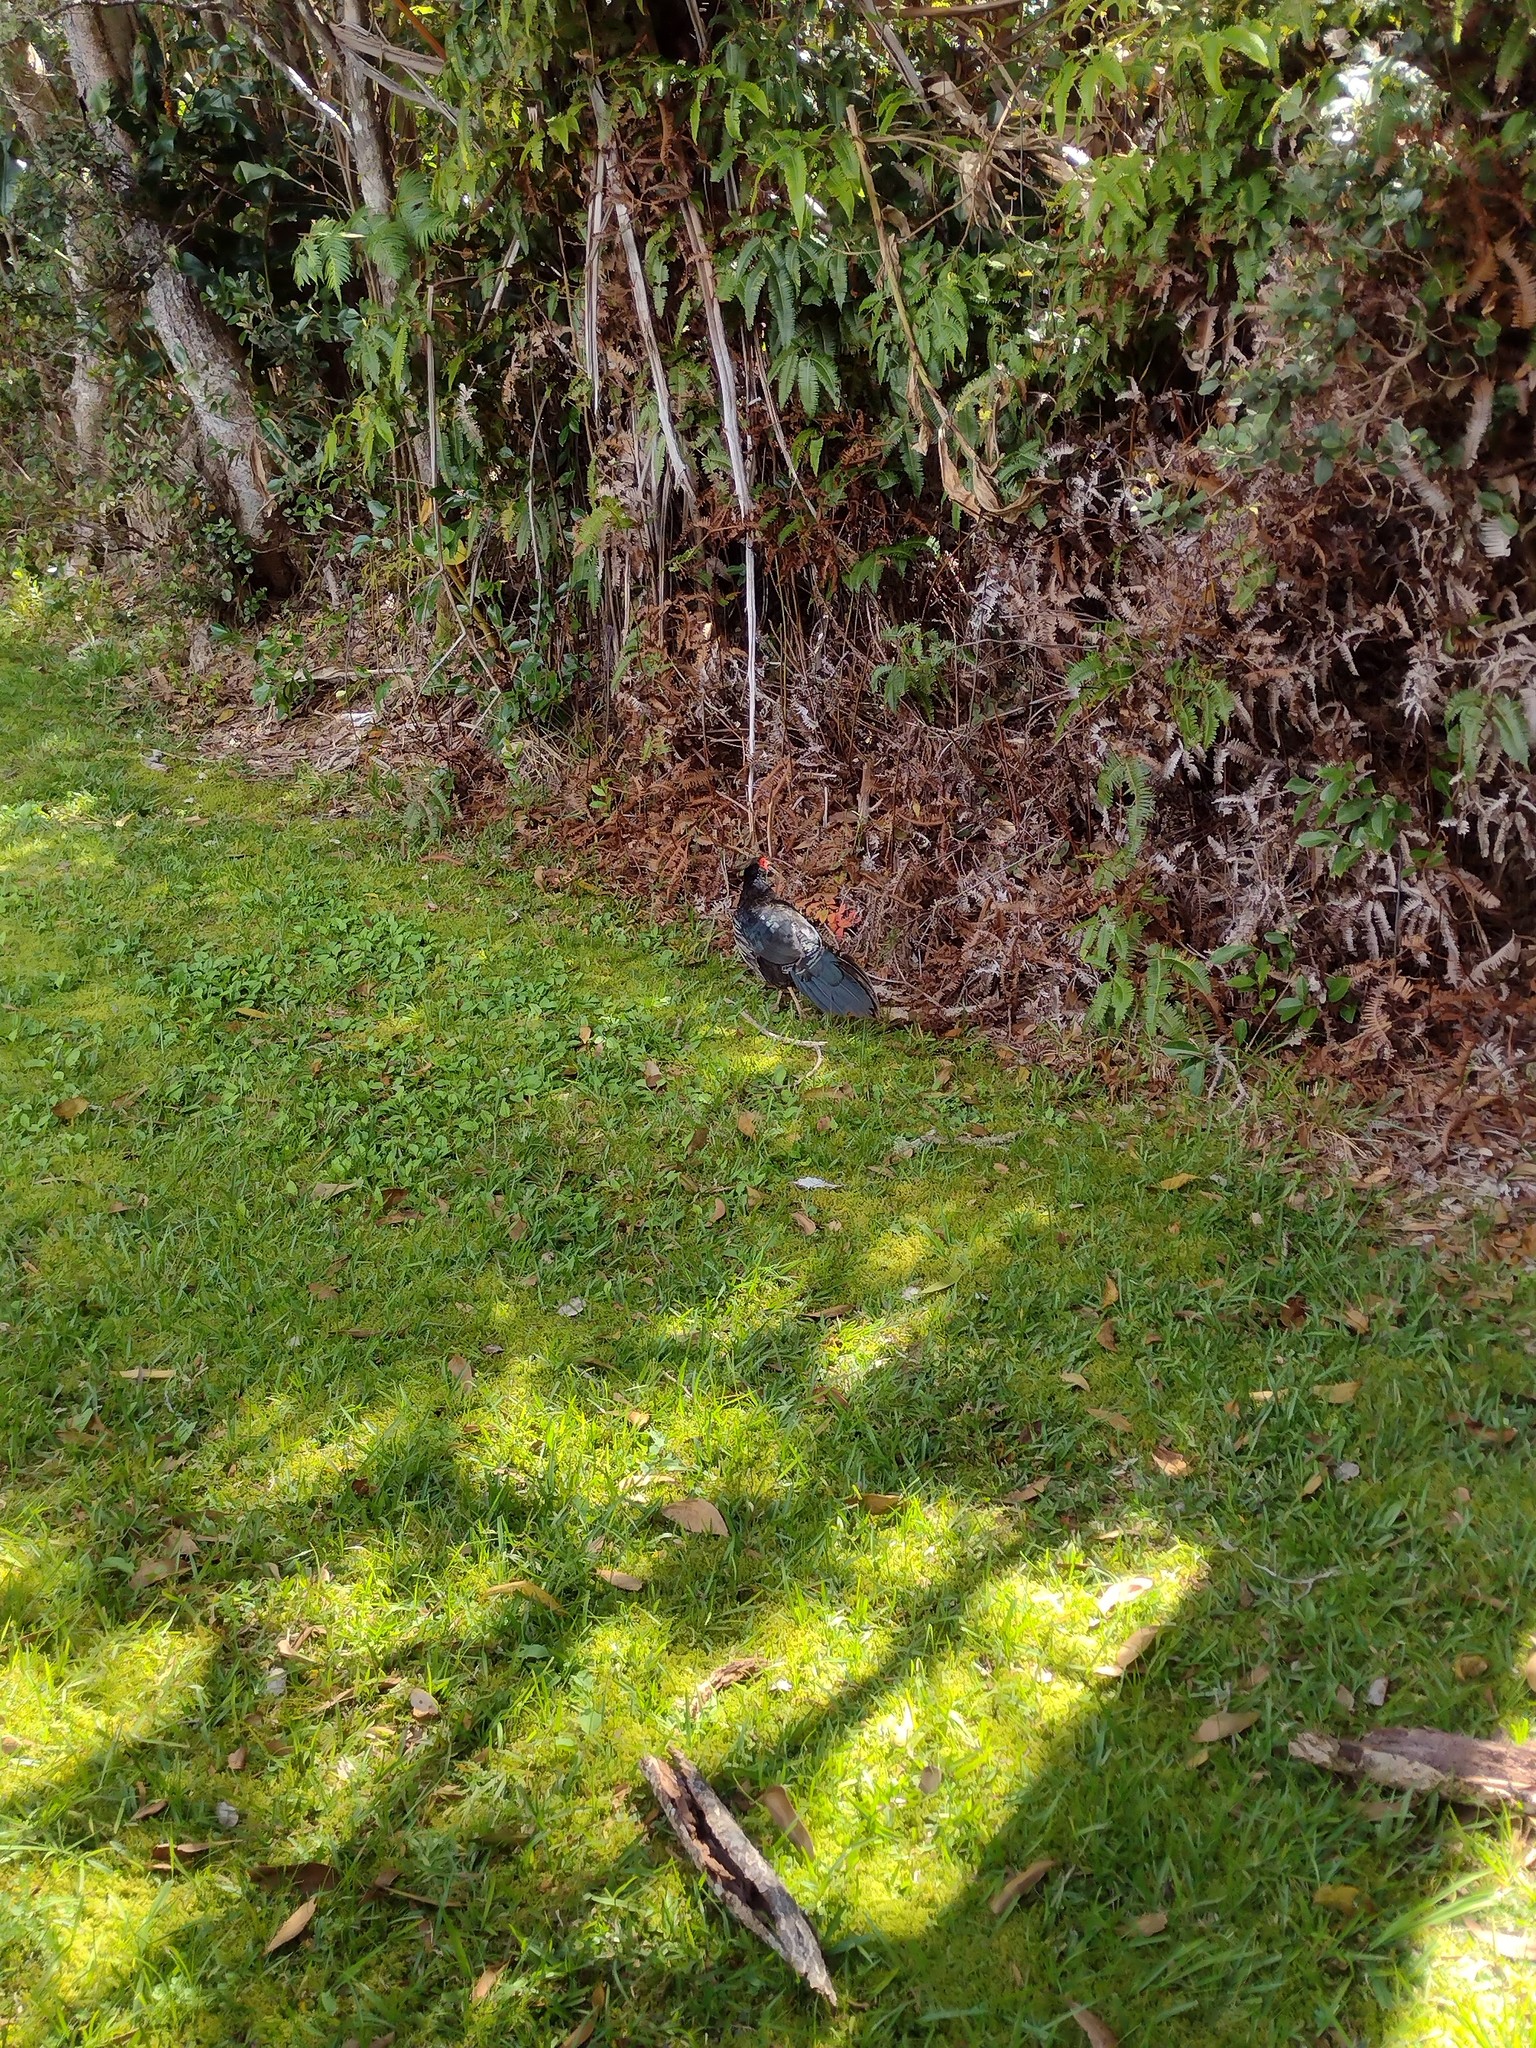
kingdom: Animalia
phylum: Chordata
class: Aves
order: Galliformes
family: Phasianidae
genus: Lophura
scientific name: Lophura leucomelanos
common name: Kalij pheasant
